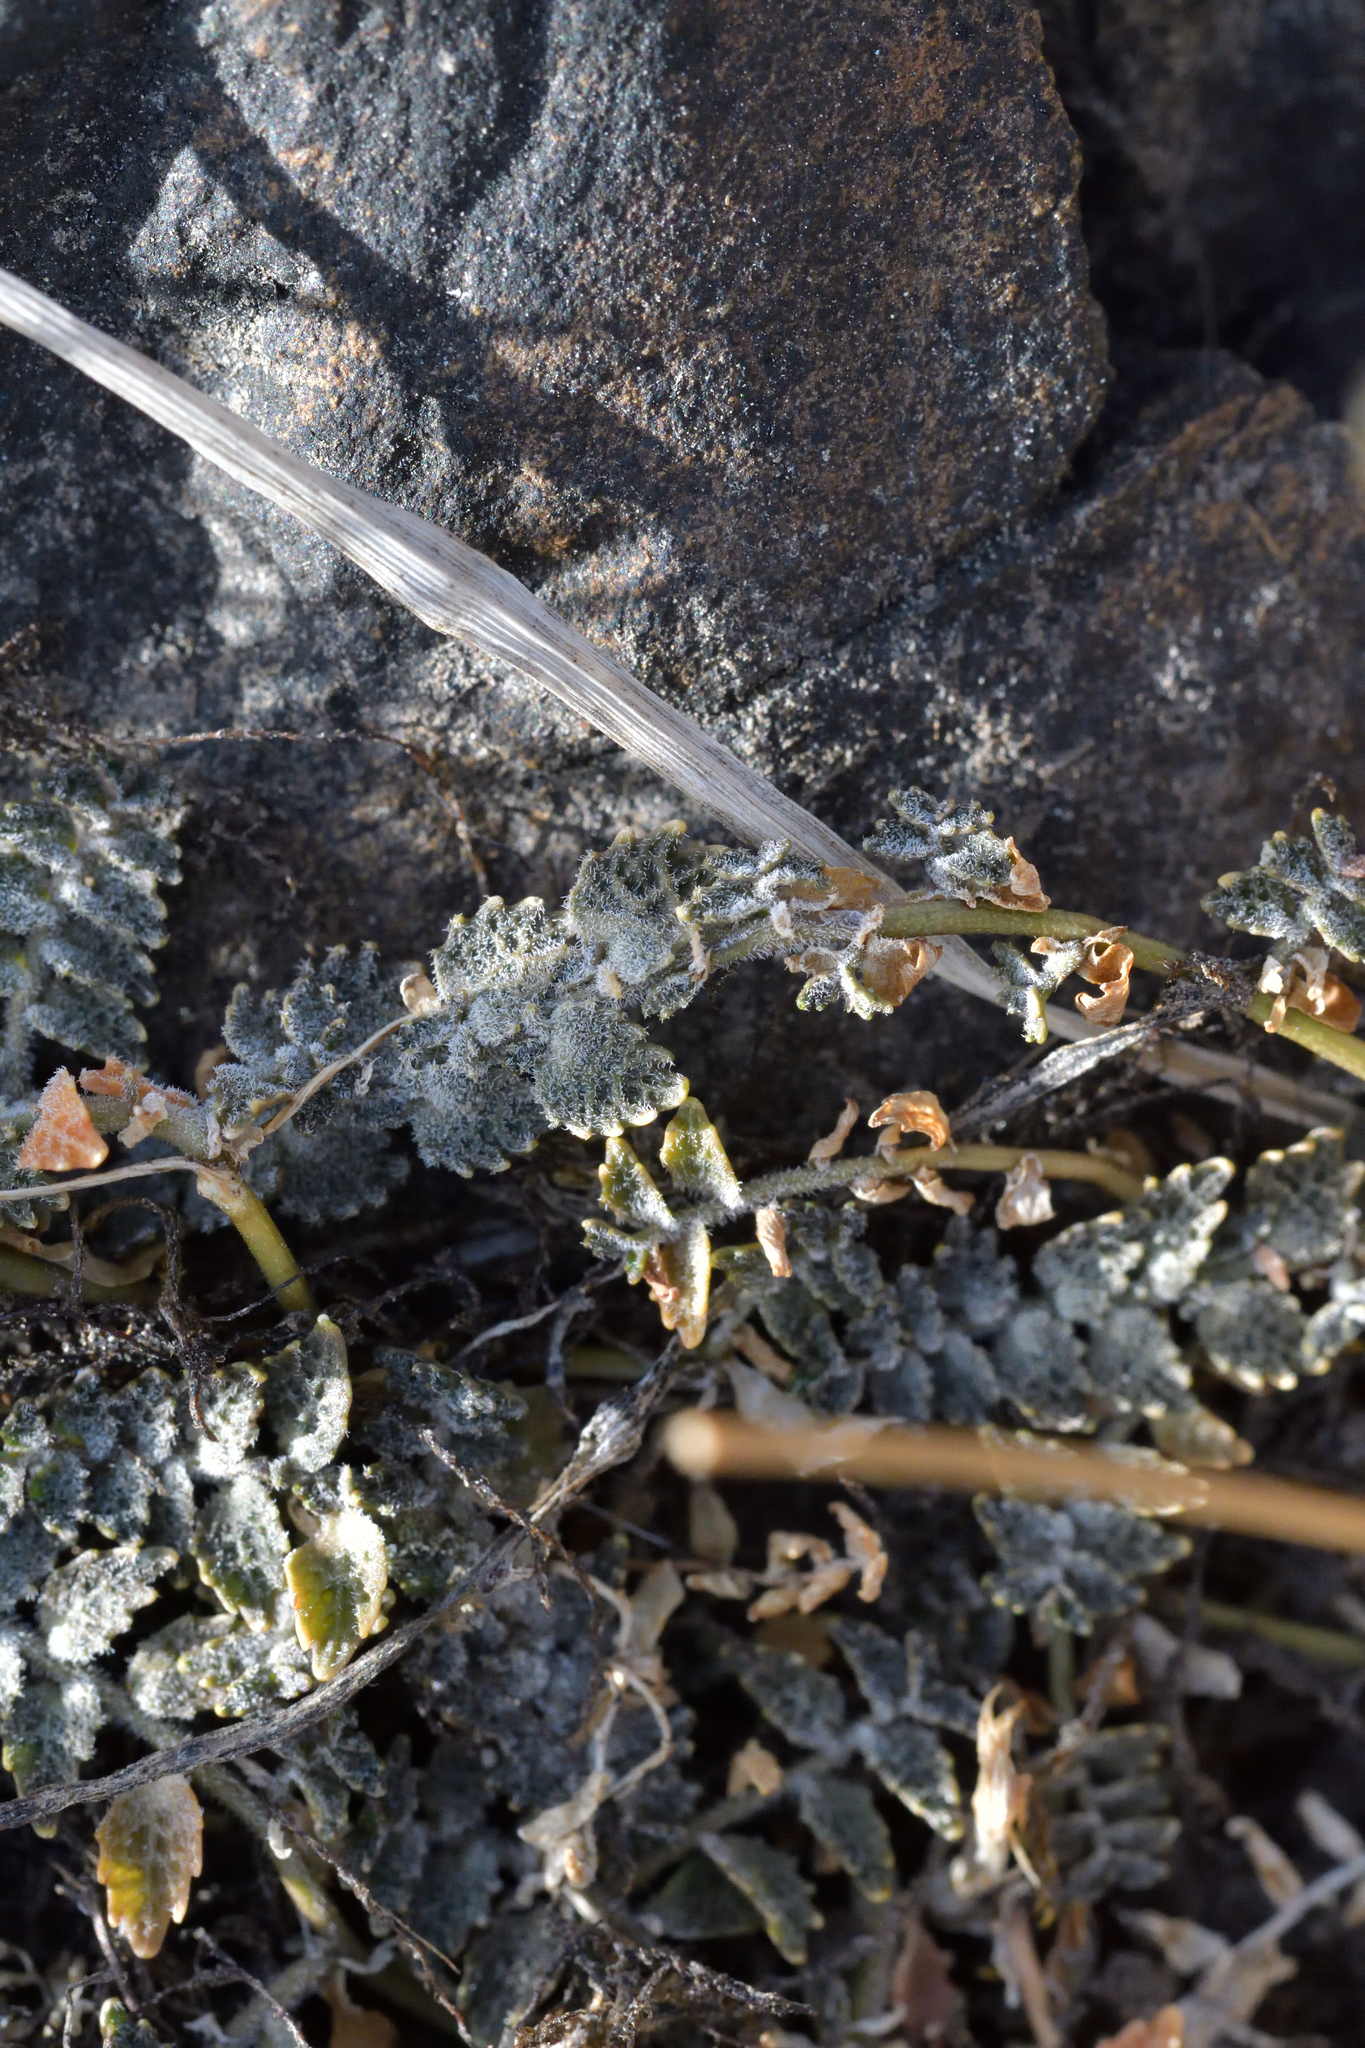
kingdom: Plantae
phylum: Tracheophyta
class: Magnoliopsida
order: Asterales
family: Campanulaceae
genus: Lobelia
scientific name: Lobelia perpusilla
